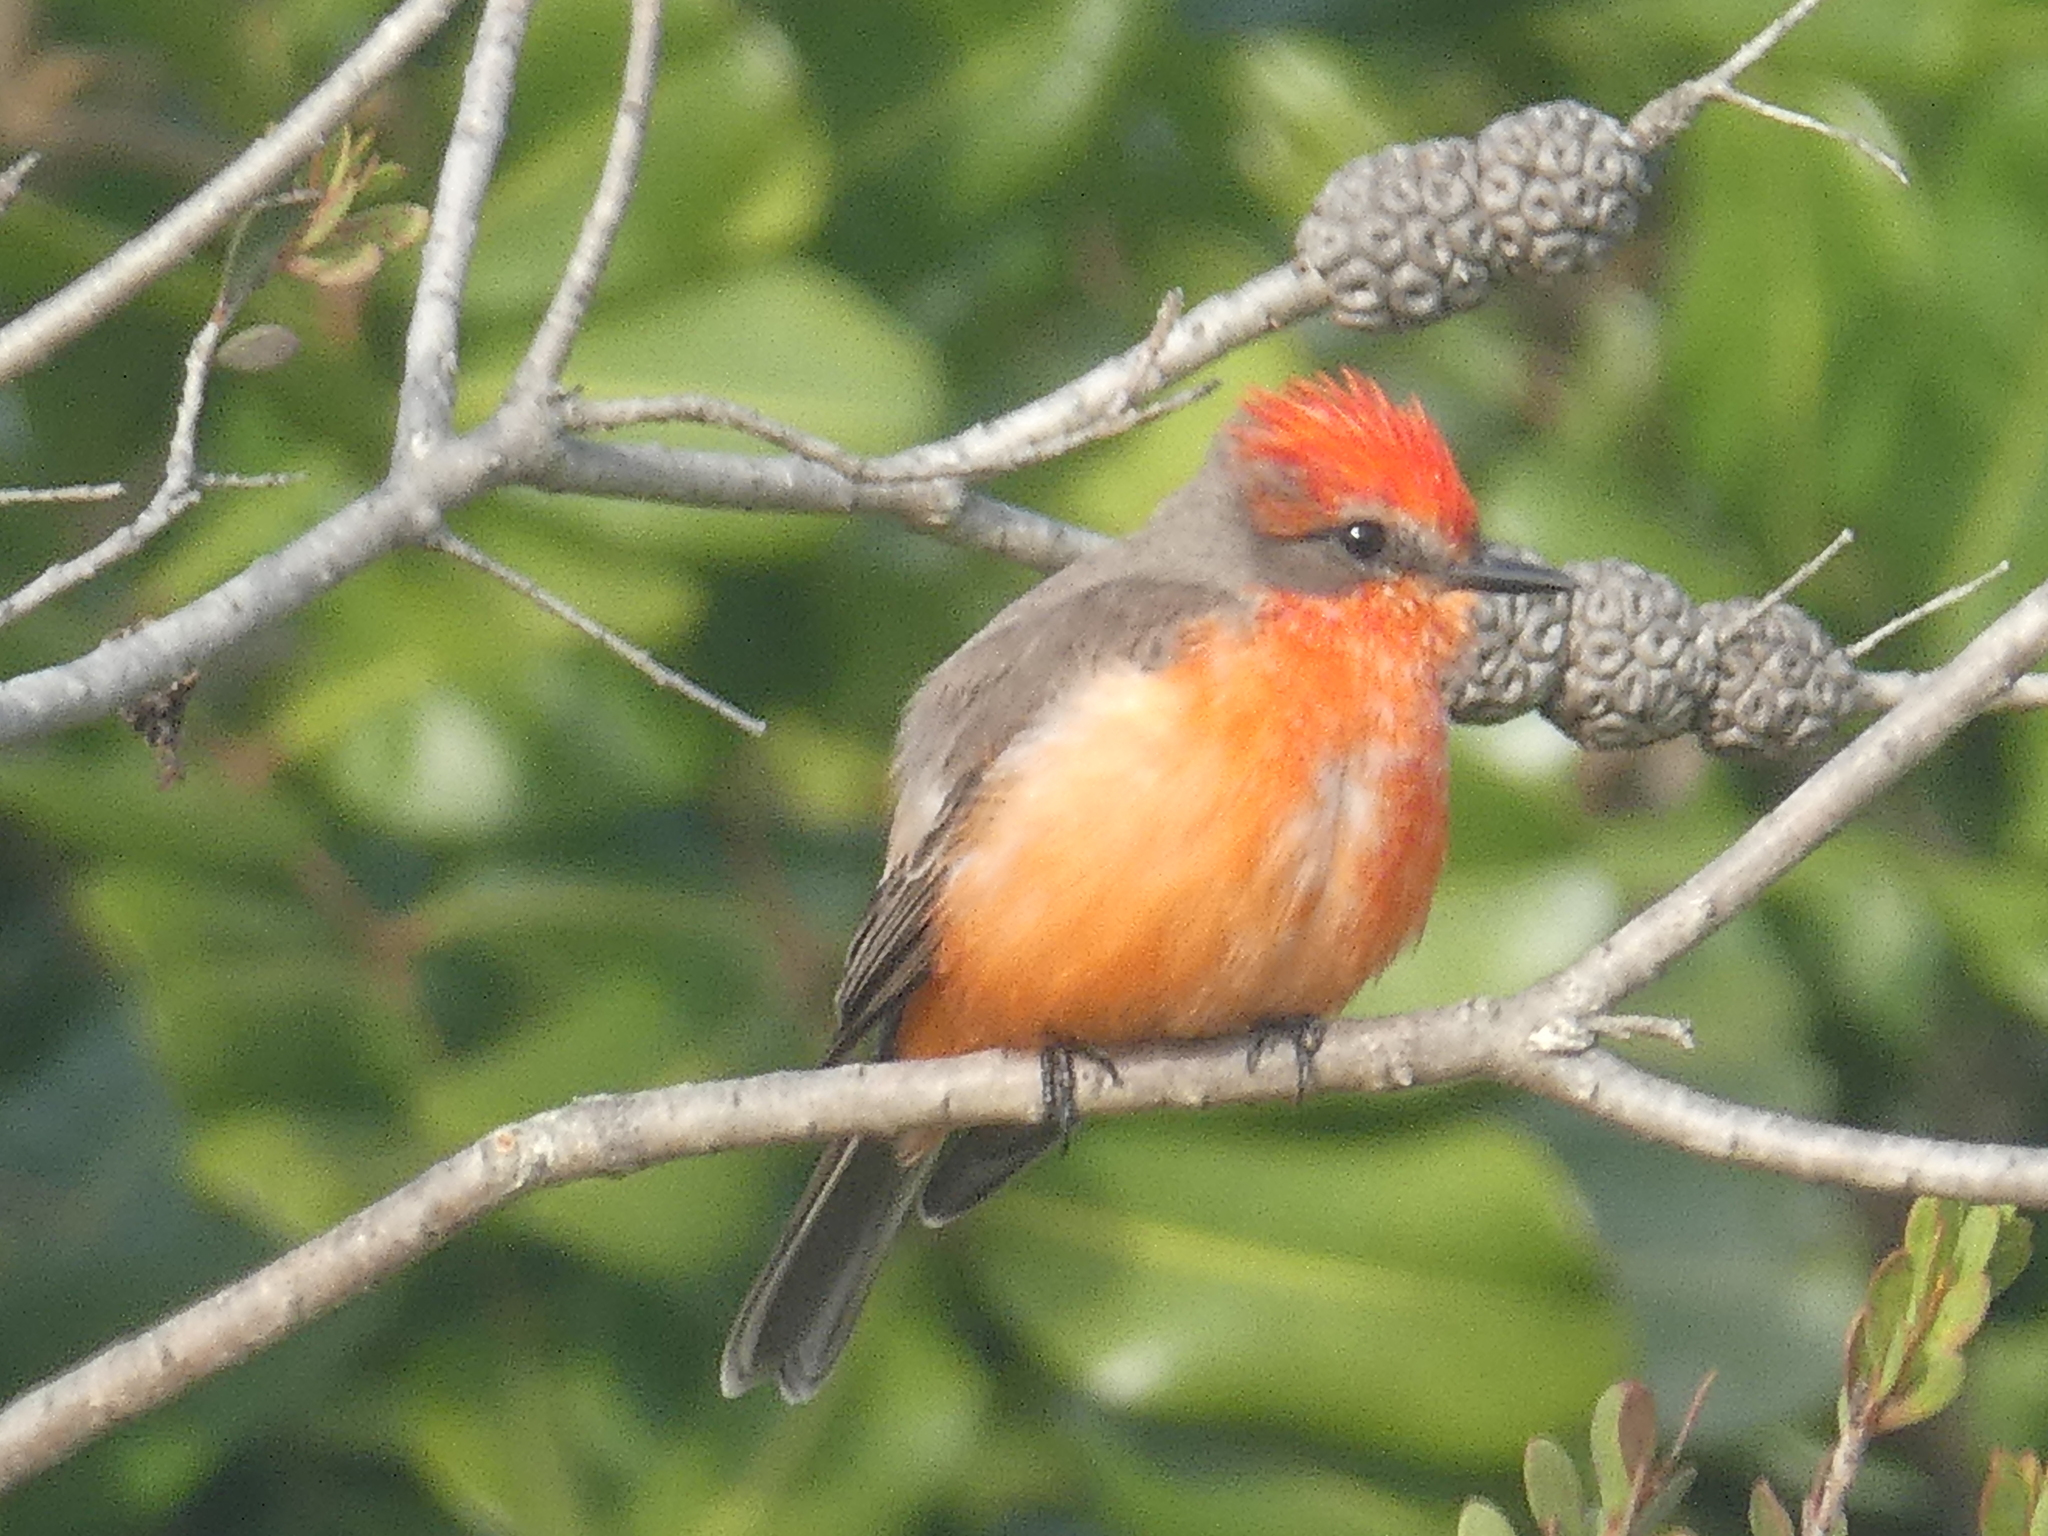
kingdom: Animalia
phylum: Chordata
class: Aves
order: Passeriformes
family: Tyrannidae
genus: Pyrocephalus
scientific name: Pyrocephalus rubinus
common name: Vermilion flycatcher
